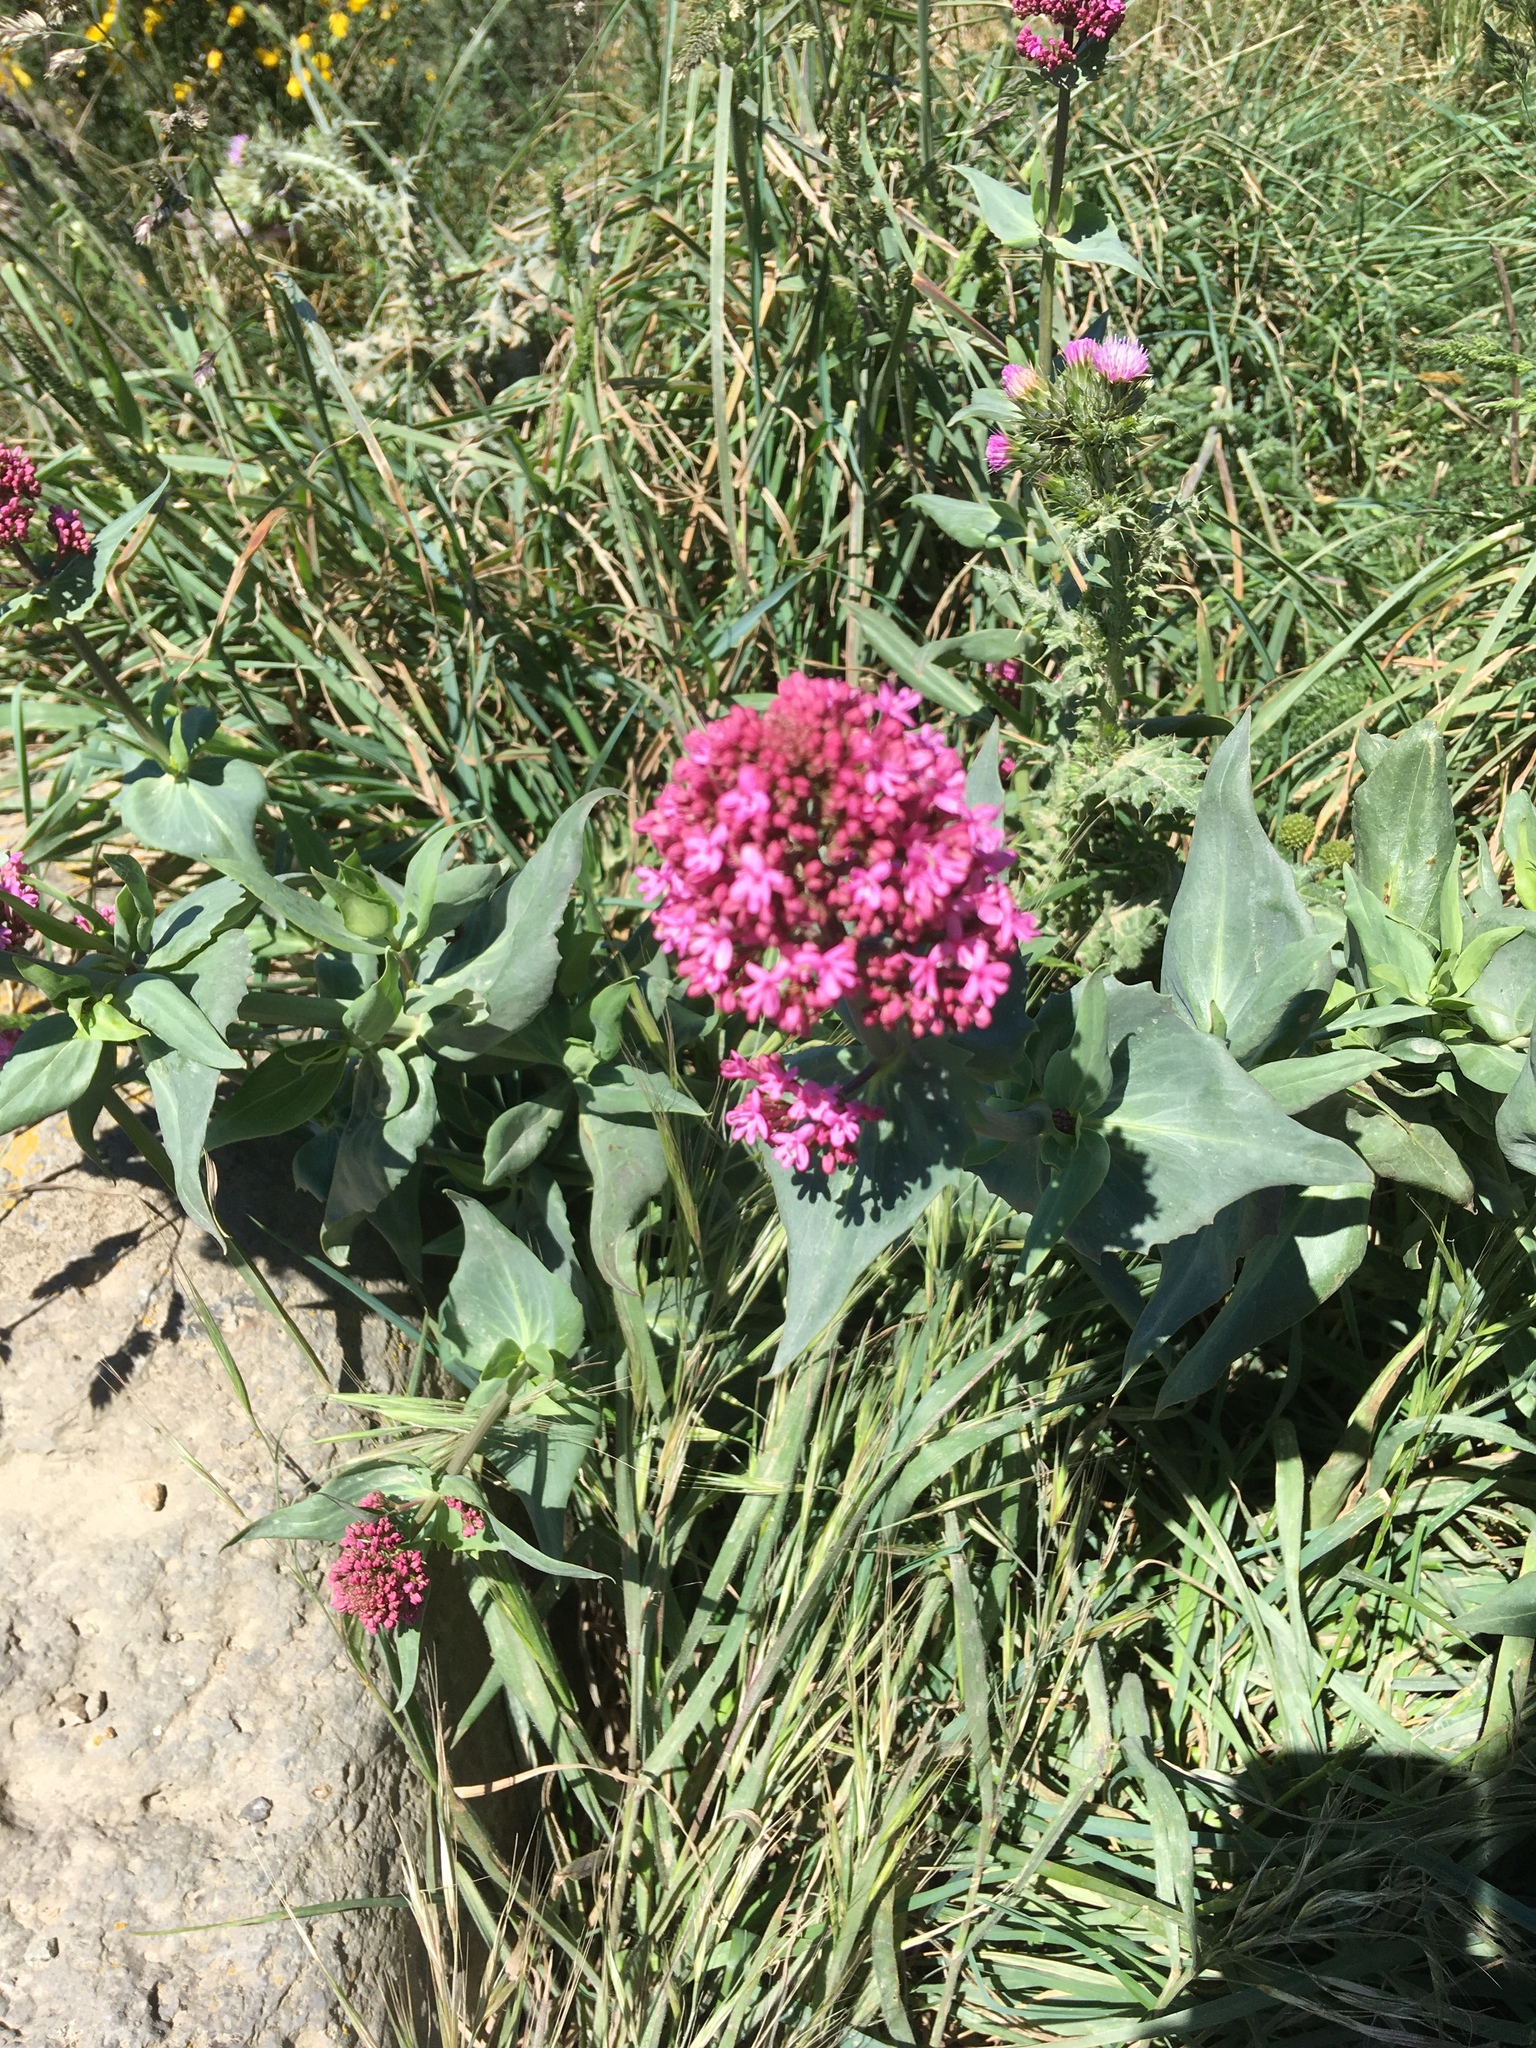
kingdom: Plantae
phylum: Tracheophyta
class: Magnoliopsida
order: Dipsacales
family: Caprifoliaceae
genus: Centranthus
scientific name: Centranthus ruber
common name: Red valerian
